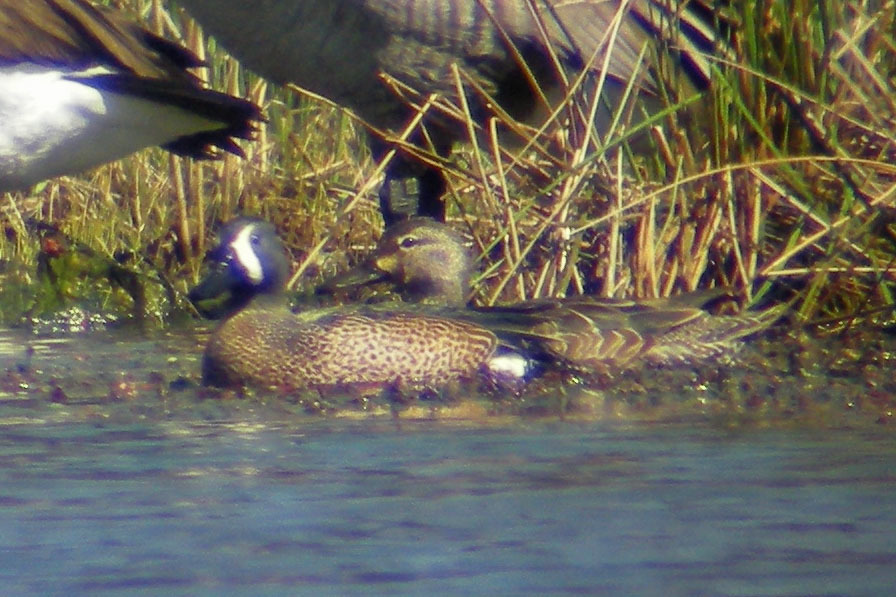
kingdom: Animalia
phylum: Chordata
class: Aves
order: Anseriformes
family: Anatidae
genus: Spatula
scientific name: Spatula discors
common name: Blue-winged teal
